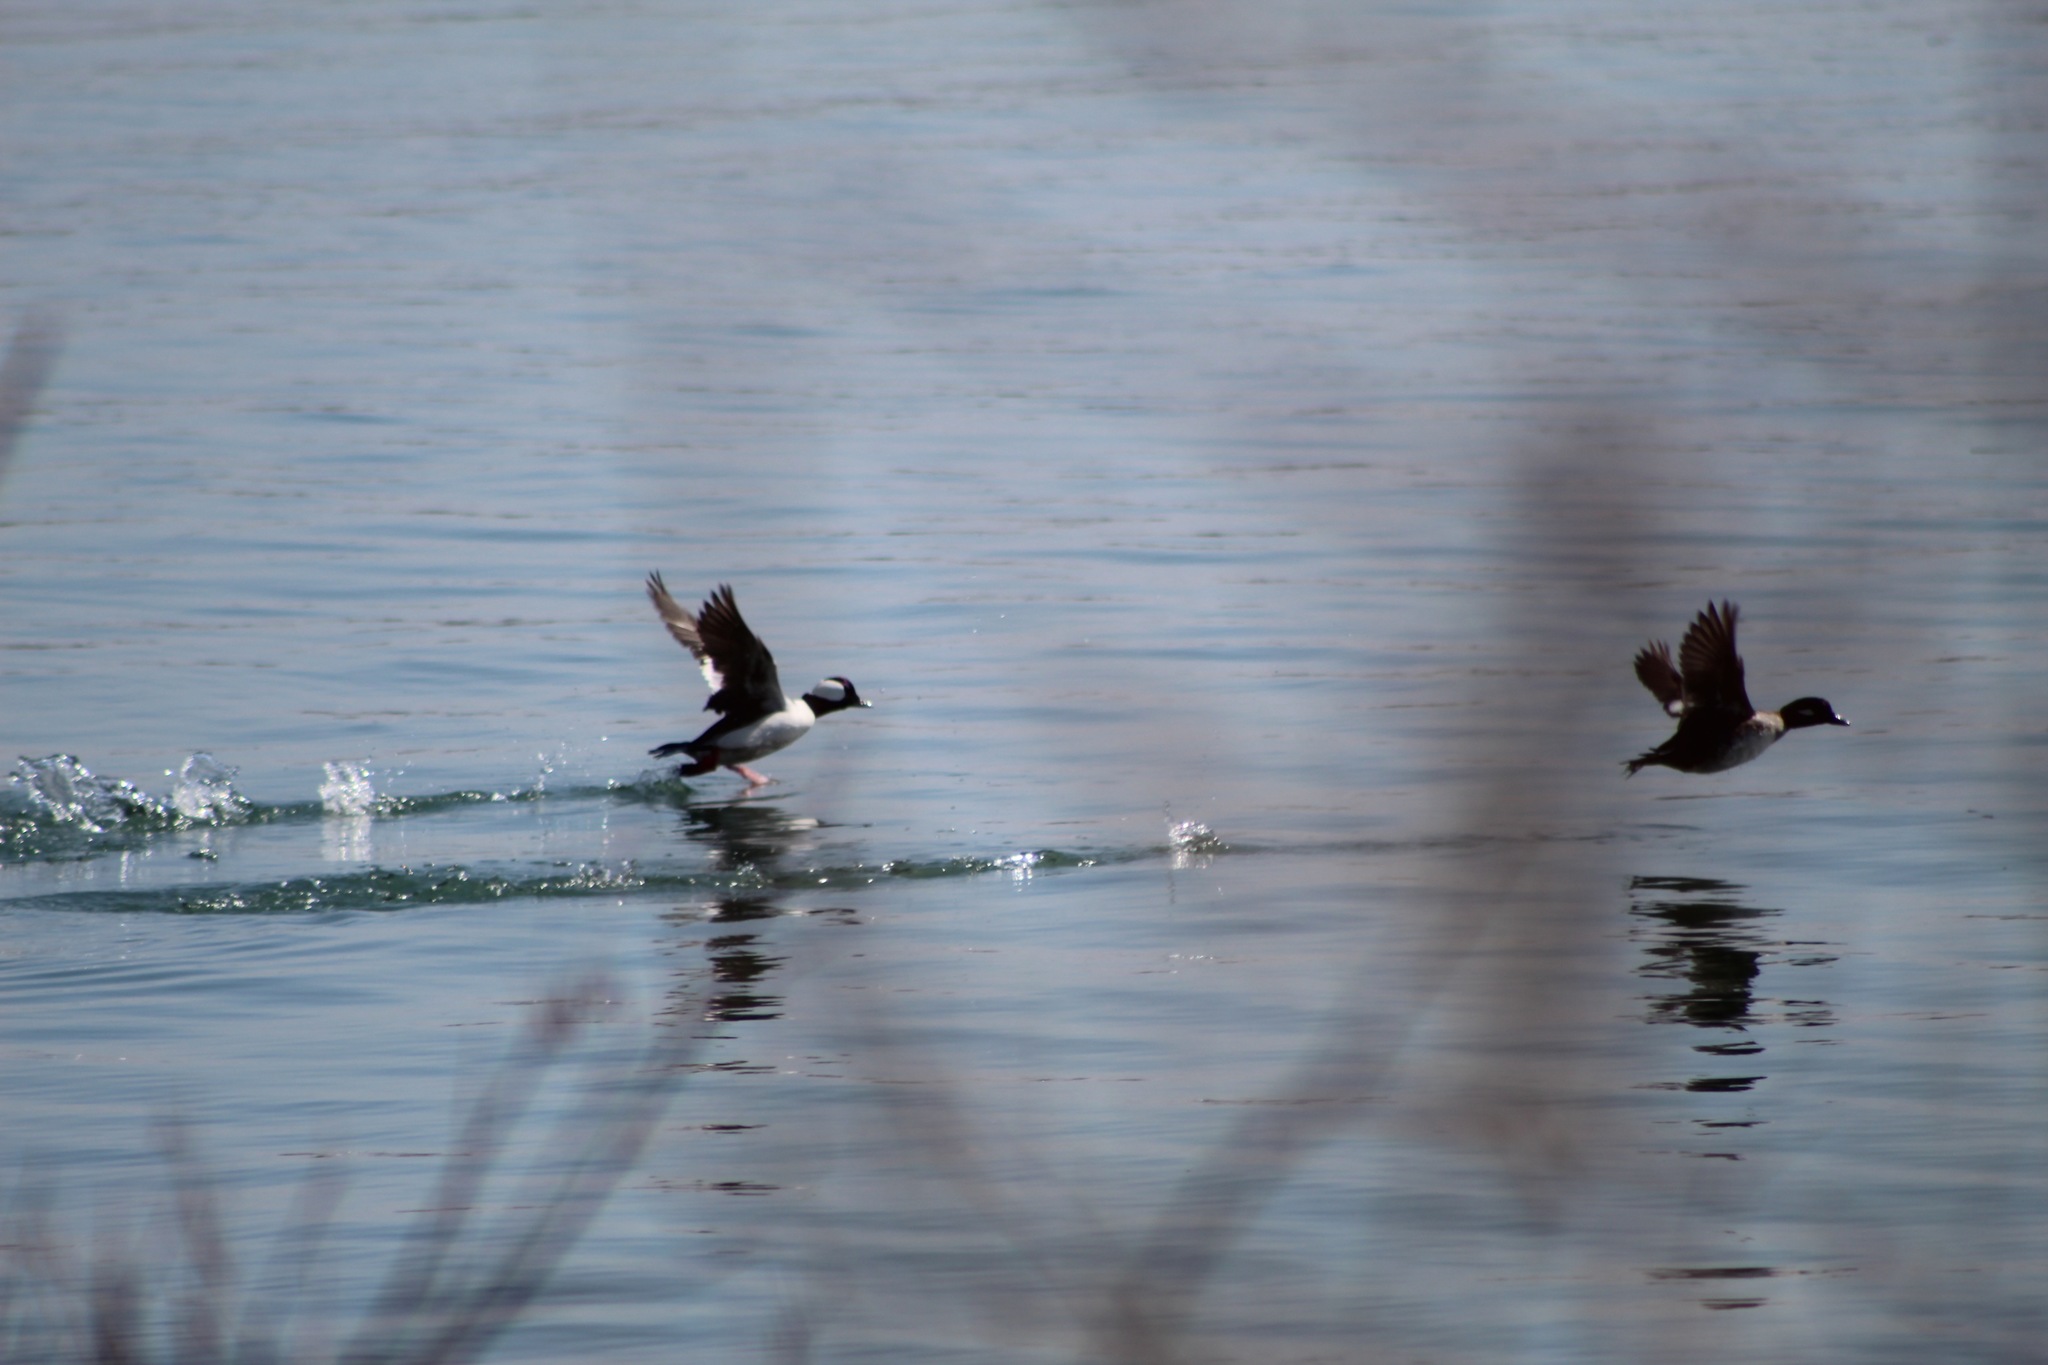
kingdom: Animalia
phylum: Chordata
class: Aves
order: Anseriformes
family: Anatidae
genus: Bucephala
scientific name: Bucephala albeola
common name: Bufflehead
